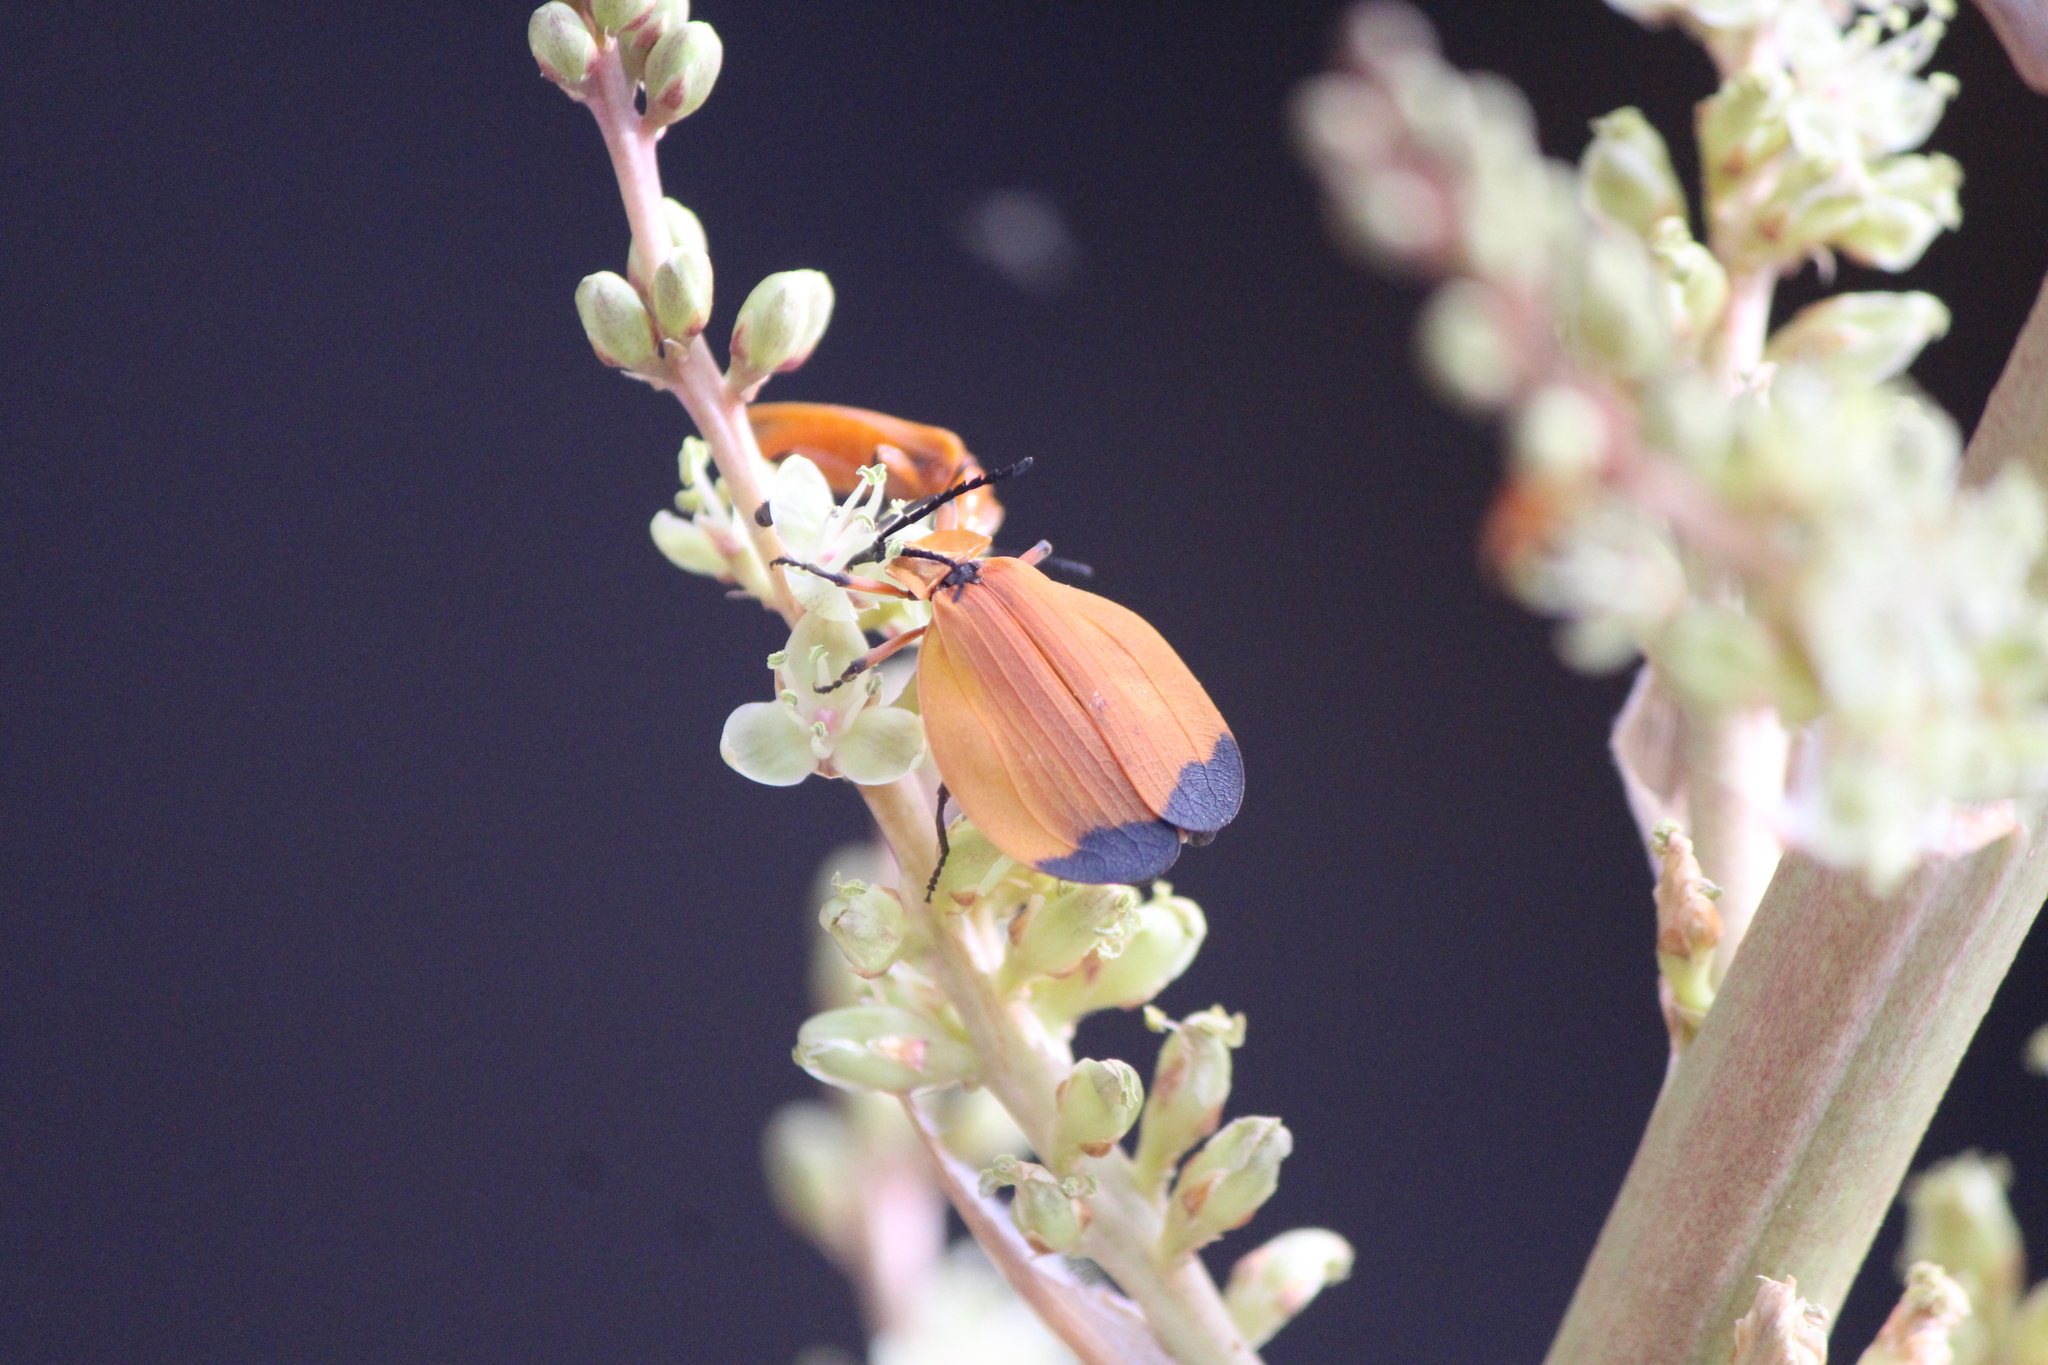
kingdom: Animalia
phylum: Arthropoda
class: Insecta
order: Coleoptera
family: Lycidae
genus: Lycus
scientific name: Lycus fernandezi
